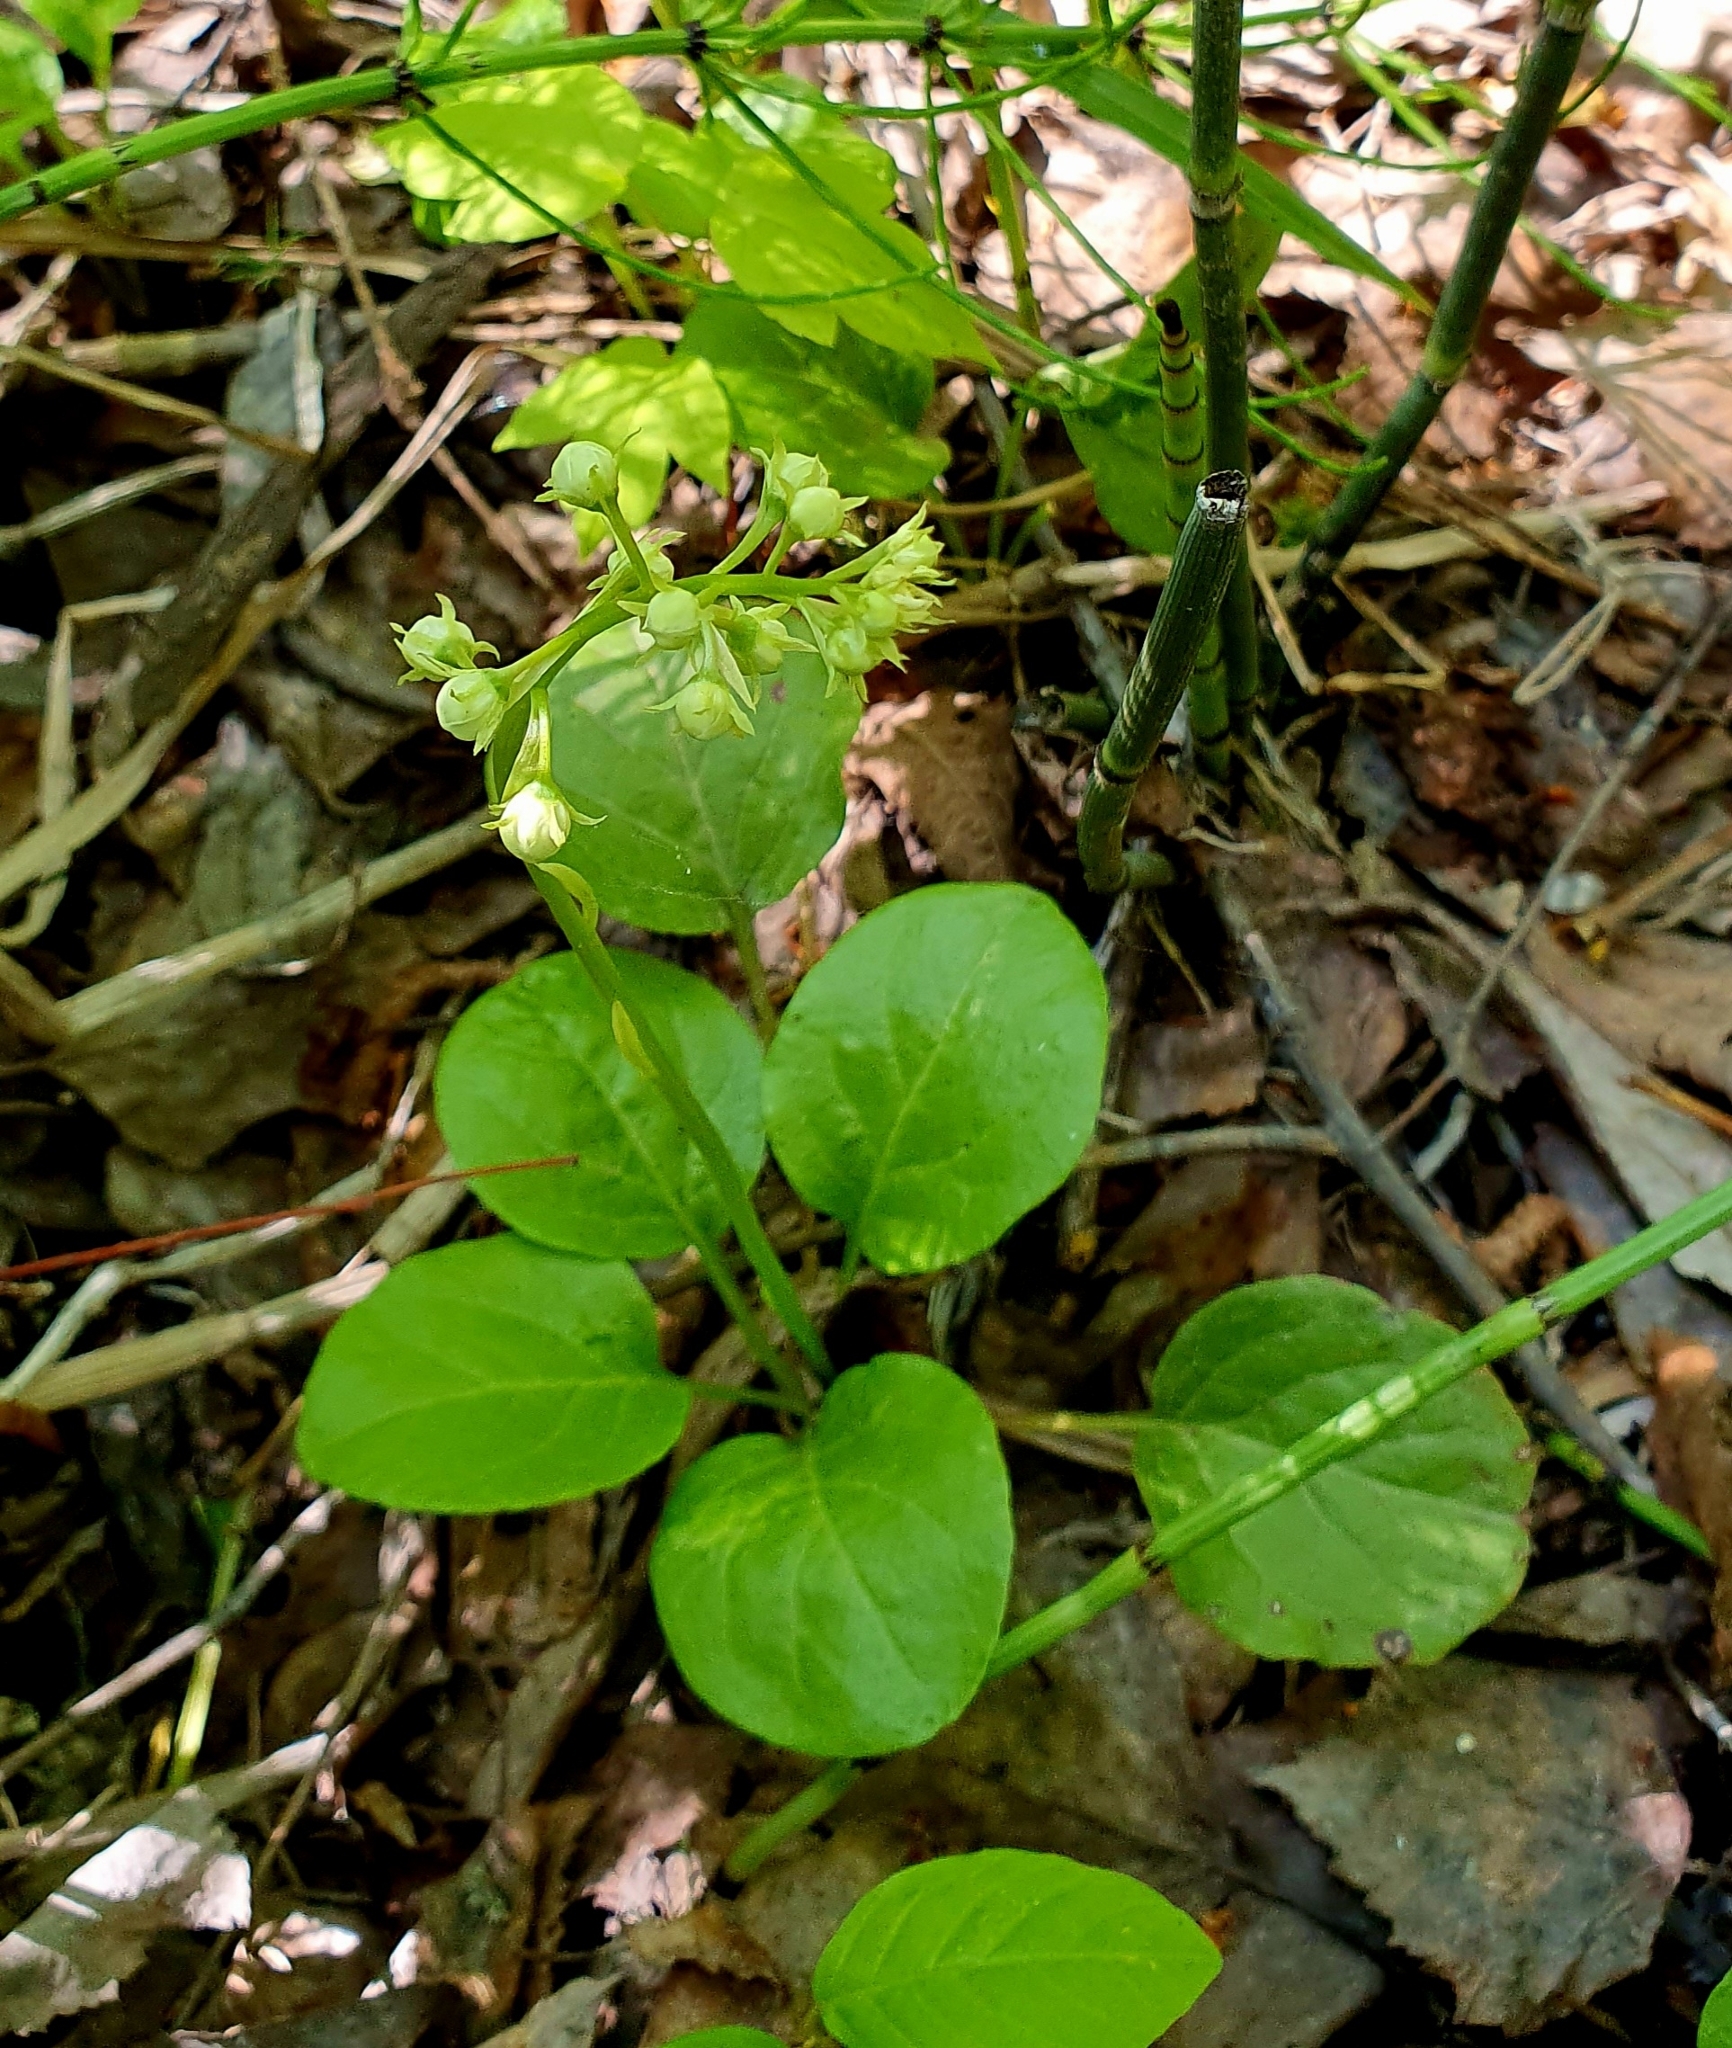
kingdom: Plantae
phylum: Tracheophyta
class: Magnoliopsida
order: Ericales
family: Ericaceae
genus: Pyrola
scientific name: Pyrola rotundifolia
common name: Round-leaved wintergreen
